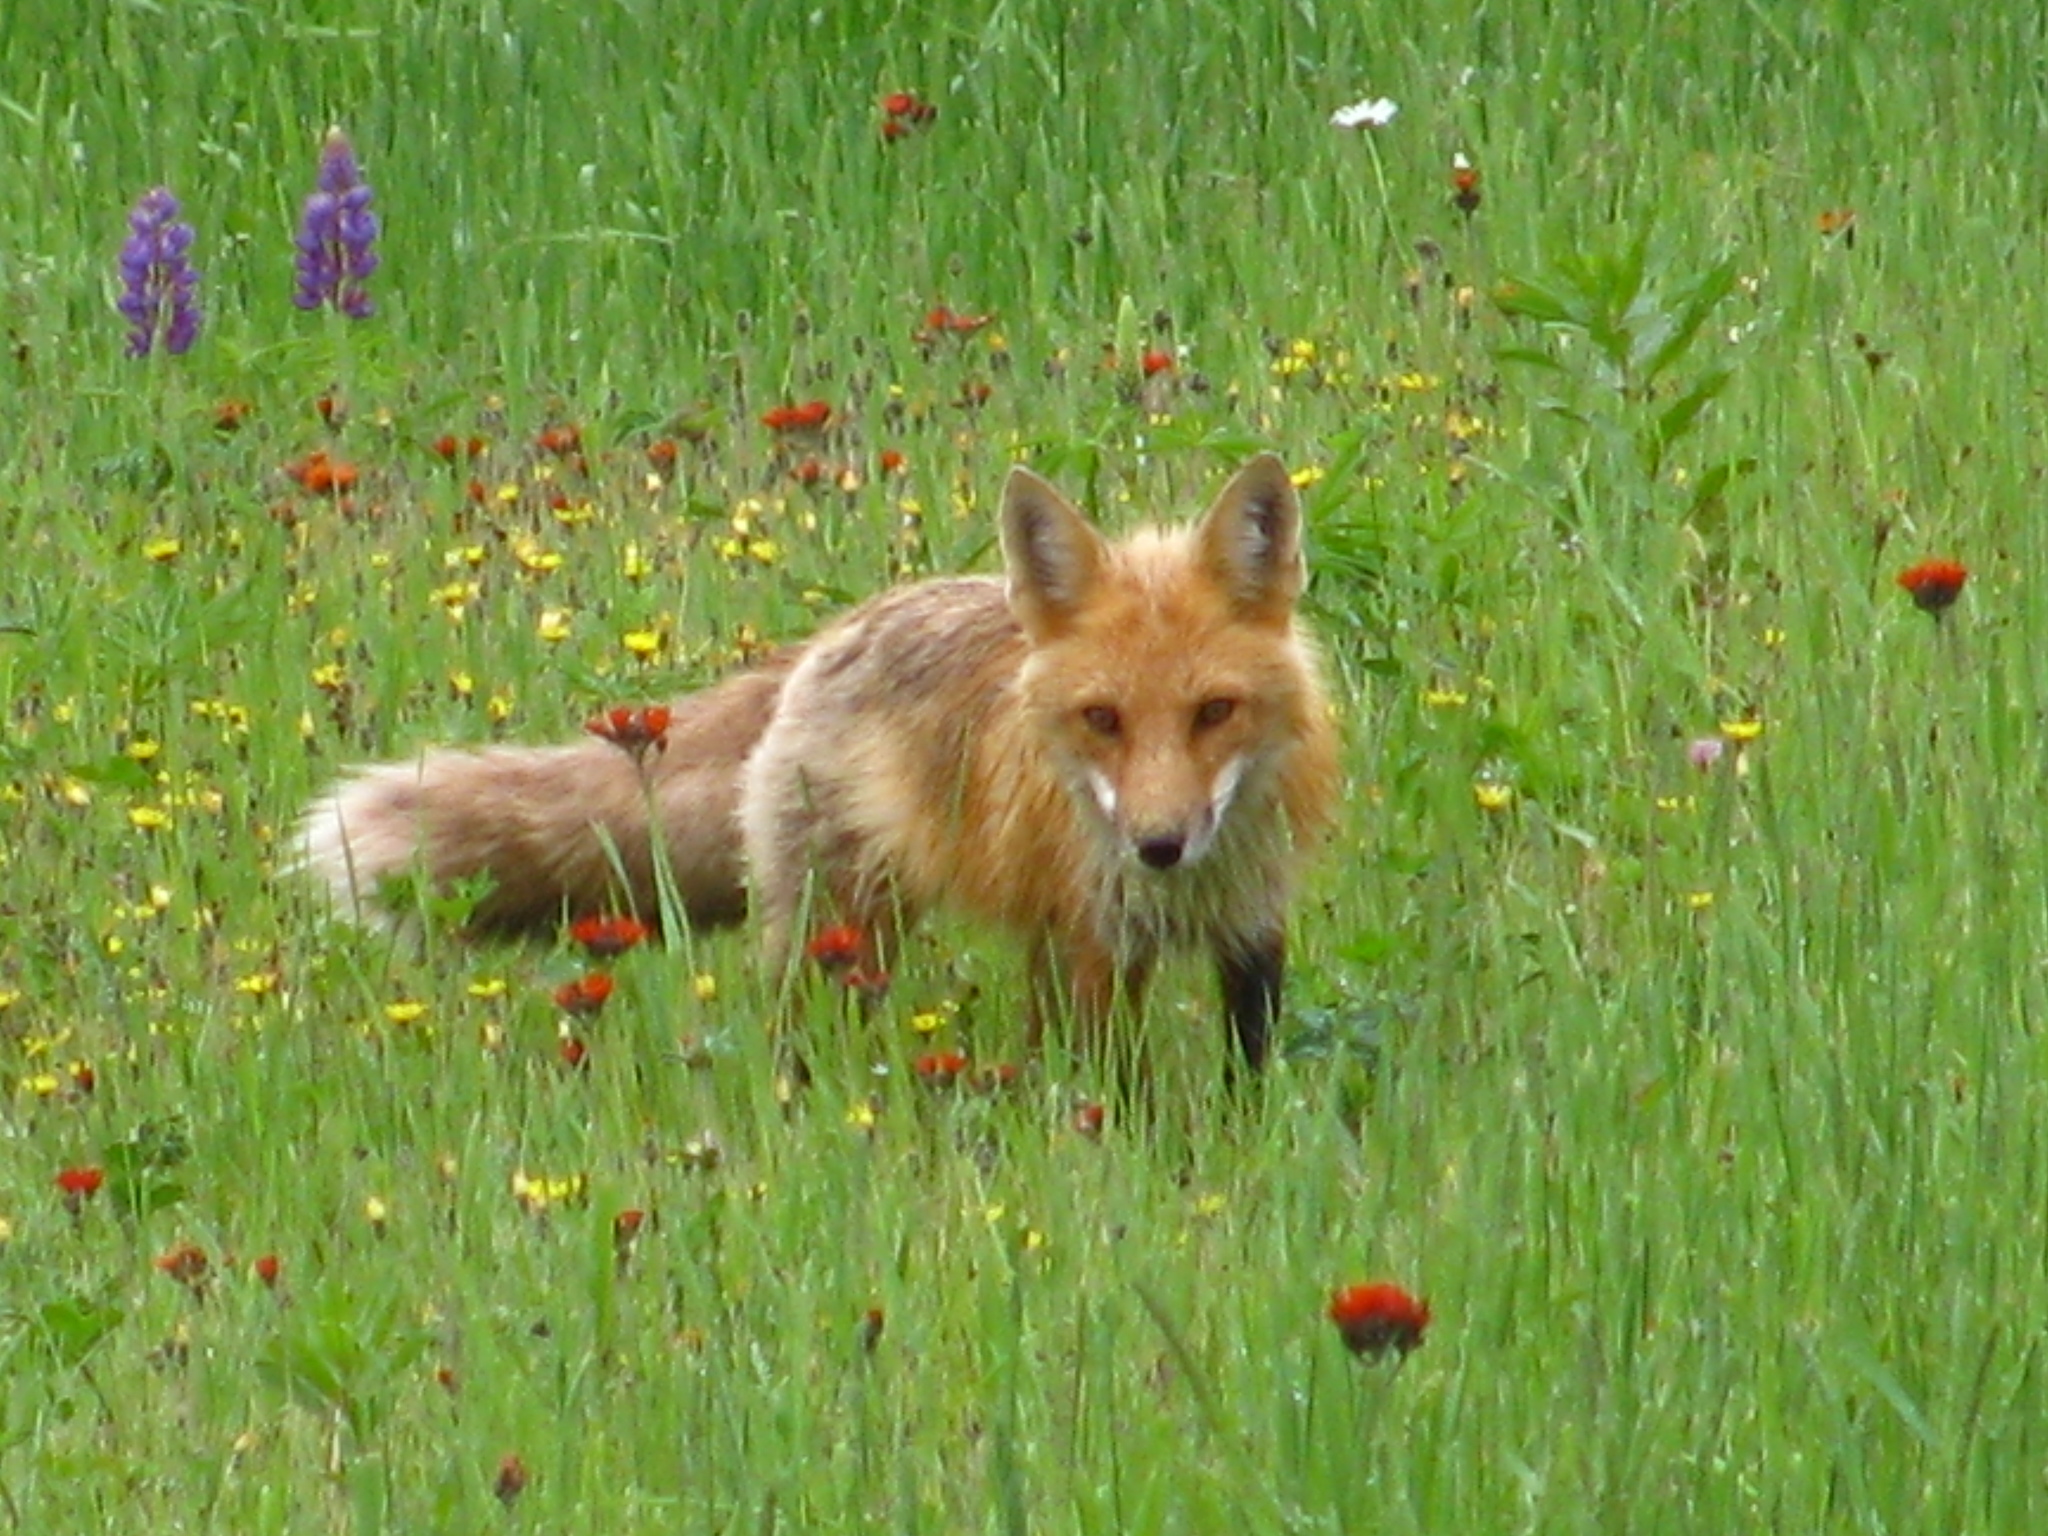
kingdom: Animalia
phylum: Chordata
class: Mammalia
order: Carnivora
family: Canidae
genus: Vulpes
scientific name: Vulpes vulpes
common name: Red fox
